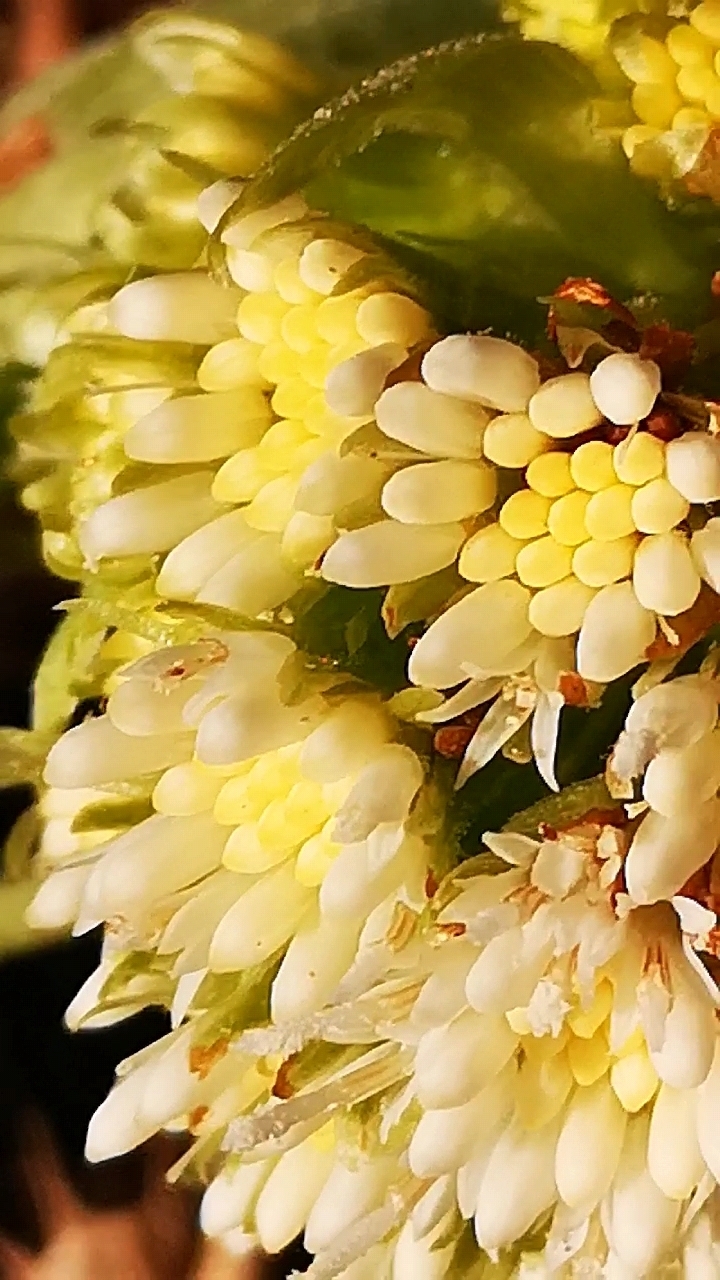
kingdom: Plantae
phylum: Tracheophyta
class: Magnoliopsida
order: Asterales
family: Asteraceae
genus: Petasites
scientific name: Petasites albus
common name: White butterbur
